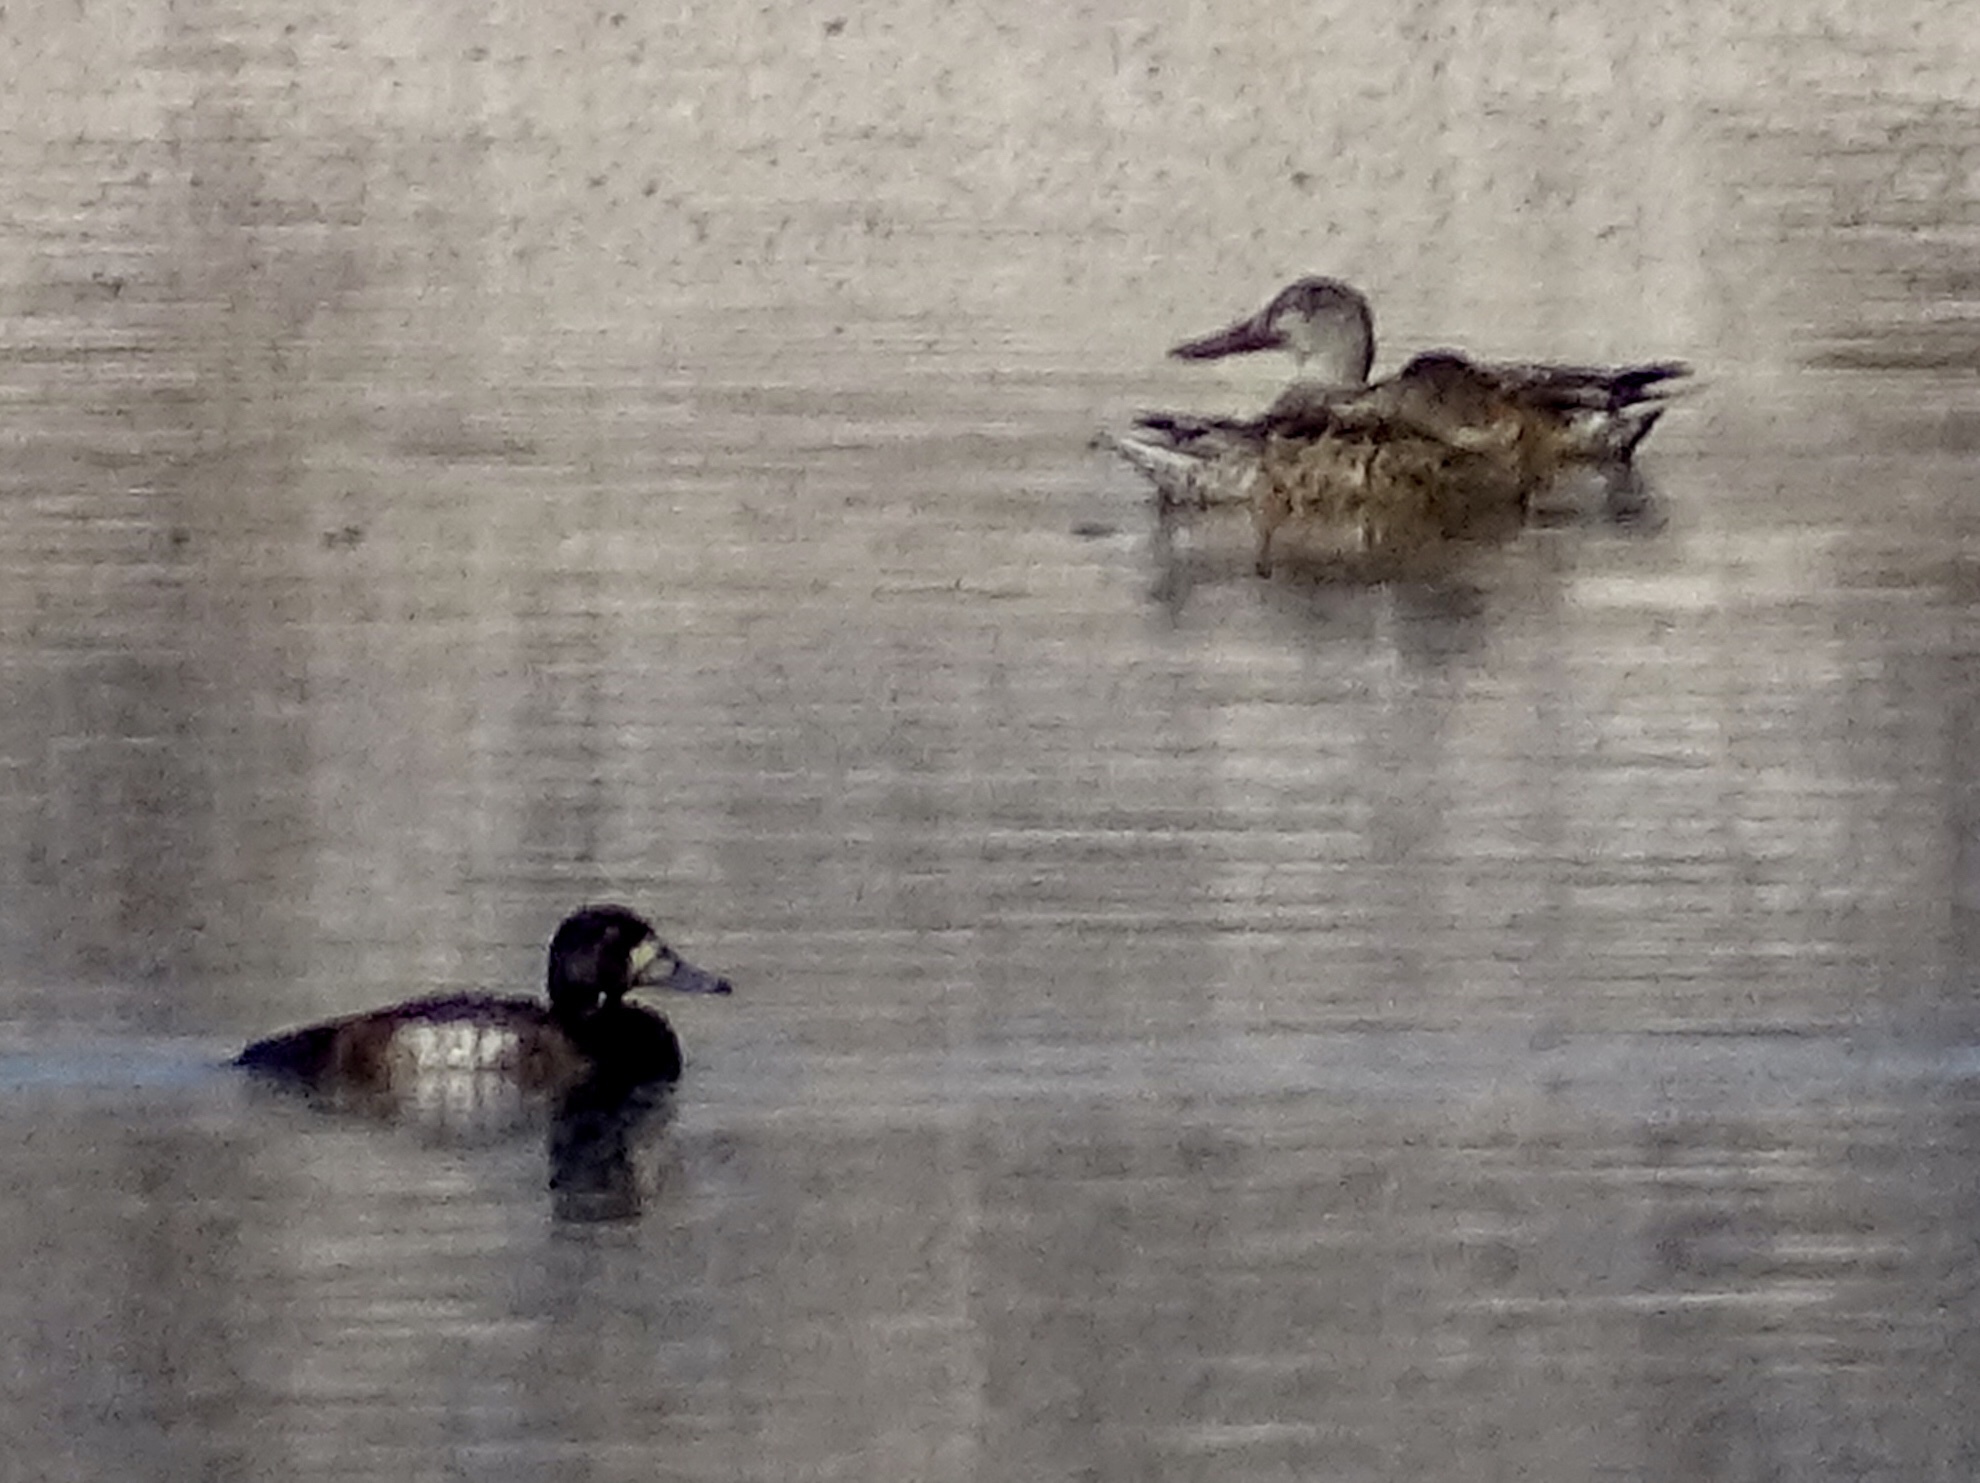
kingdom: Animalia
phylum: Chordata
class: Aves
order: Anseriformes
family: Anatidae
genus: Aythya
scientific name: Aythya marila
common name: Greater scaup
